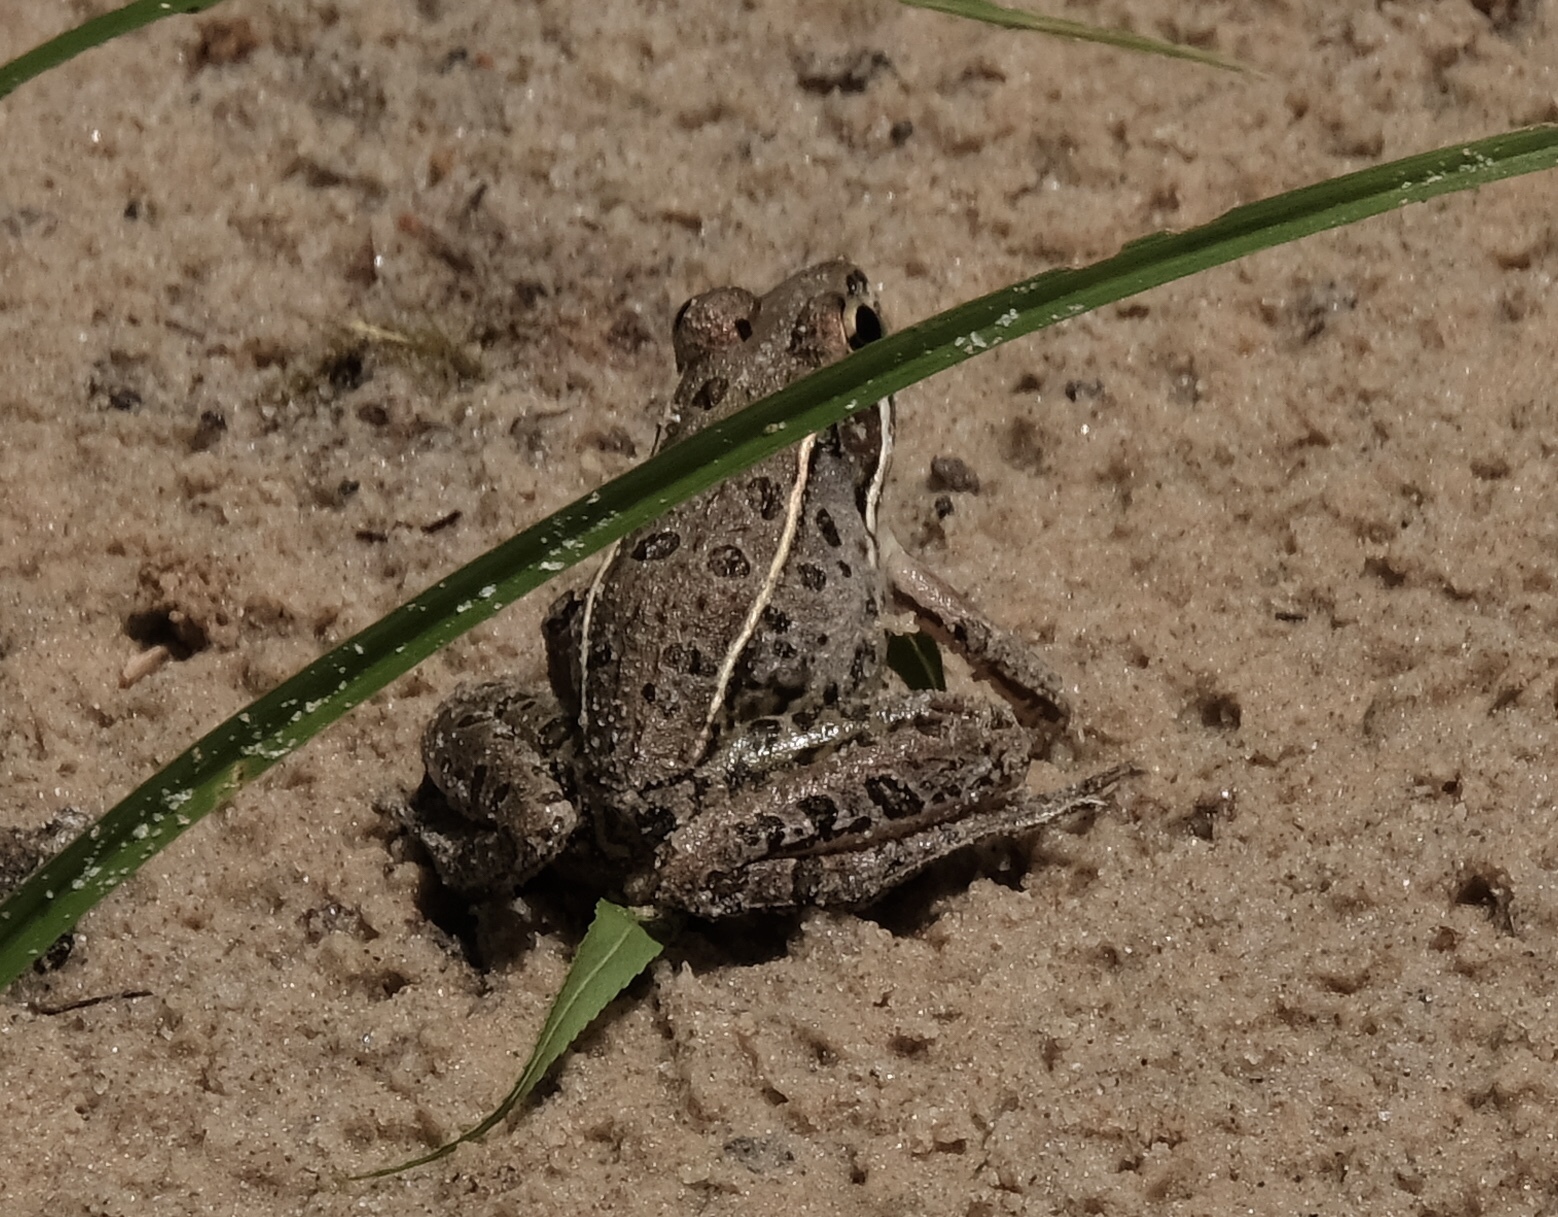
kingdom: Animalia
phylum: Chordata
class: Amphibia
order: Anura
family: Ranidae
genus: Lithobates
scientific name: Lithobates sphenocephalus
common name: Southern leopard frog
